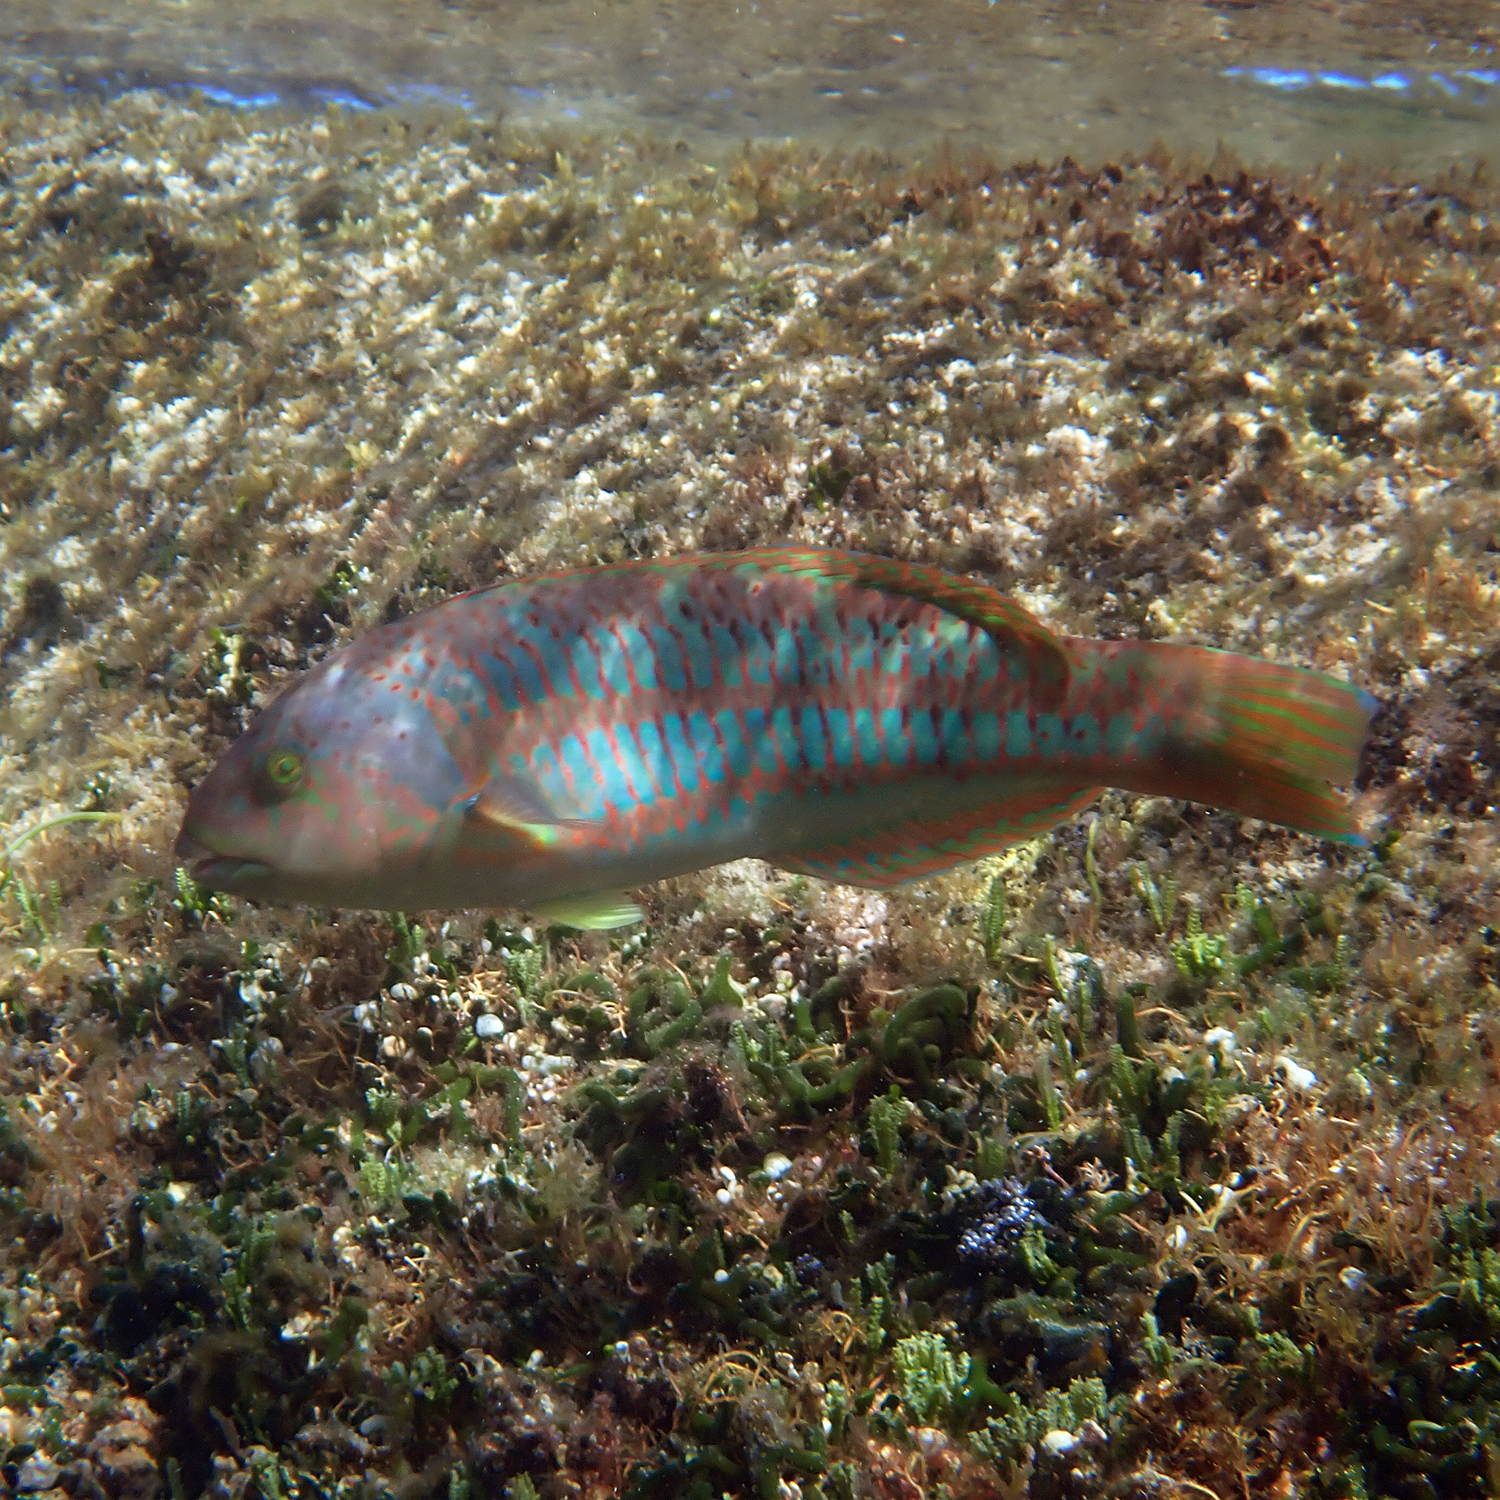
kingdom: Animalia
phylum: Chordata
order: Perciformes
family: Labridae
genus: Thalassoma
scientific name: Thalassoma trilobatum
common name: Christmas wrasse
